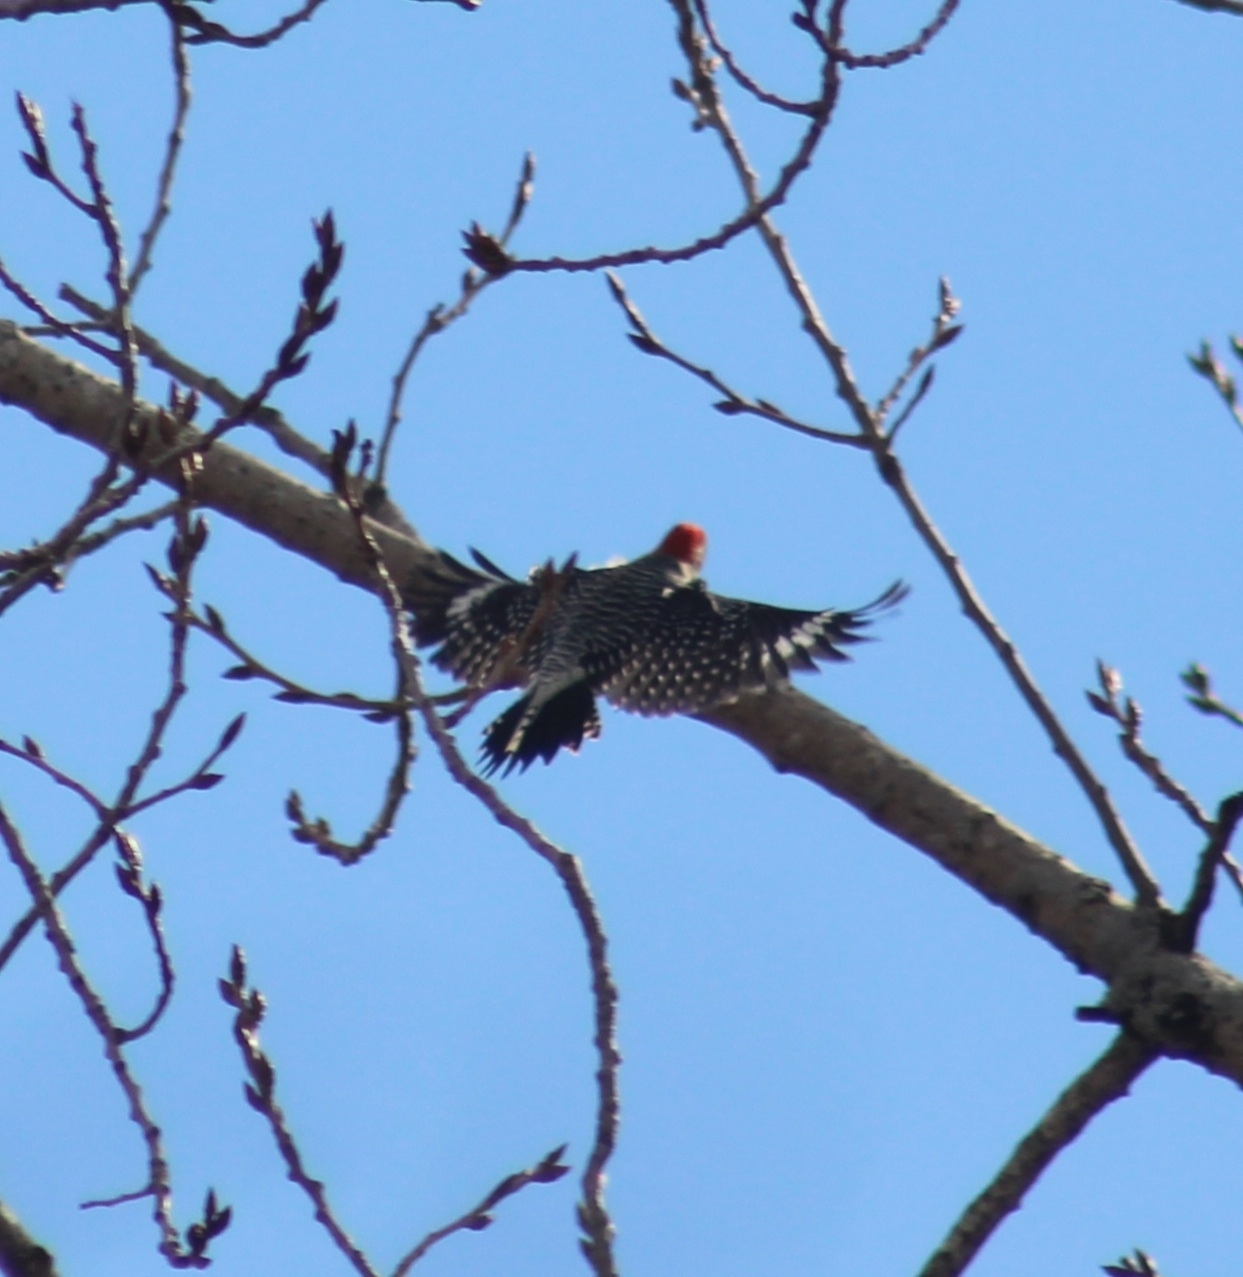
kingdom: Animalia
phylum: Chordata
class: Aves
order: Piciformes
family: Picidae
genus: Melanerpes
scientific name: Melanerpes carolinus
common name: Red-bellied woodpecker
